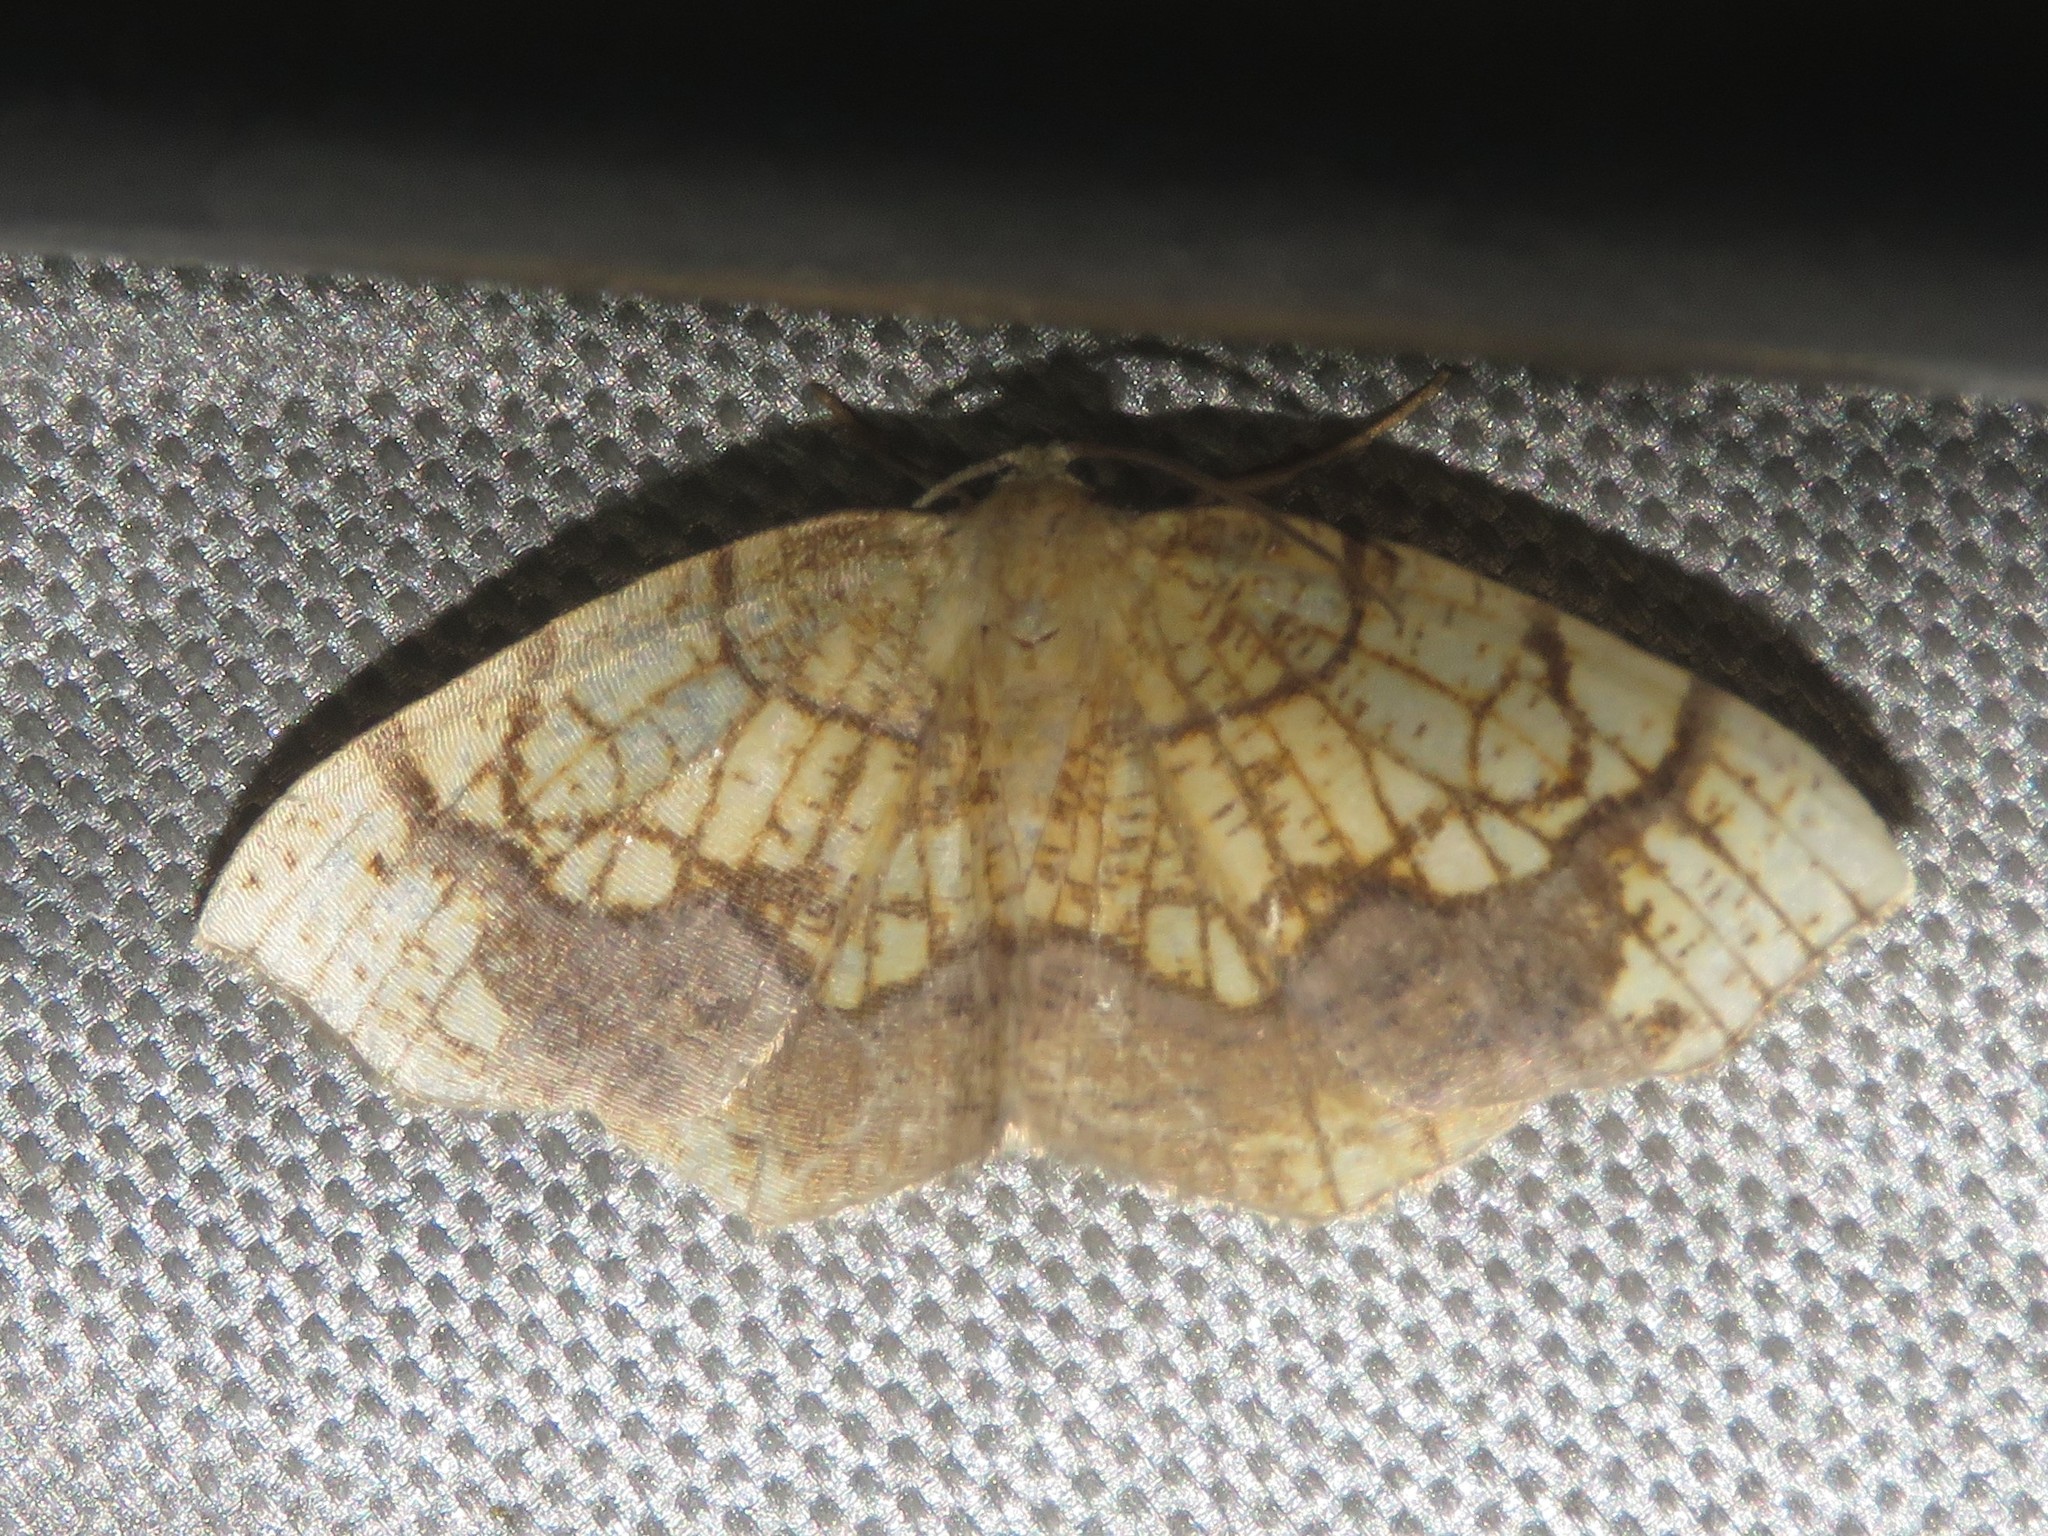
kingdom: Animalia
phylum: Arthropoda
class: Insecta
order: Lepidoptera
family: Geometridae
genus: Nematocampa
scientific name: Nematocampa resistaria
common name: Horned spanworm moth
